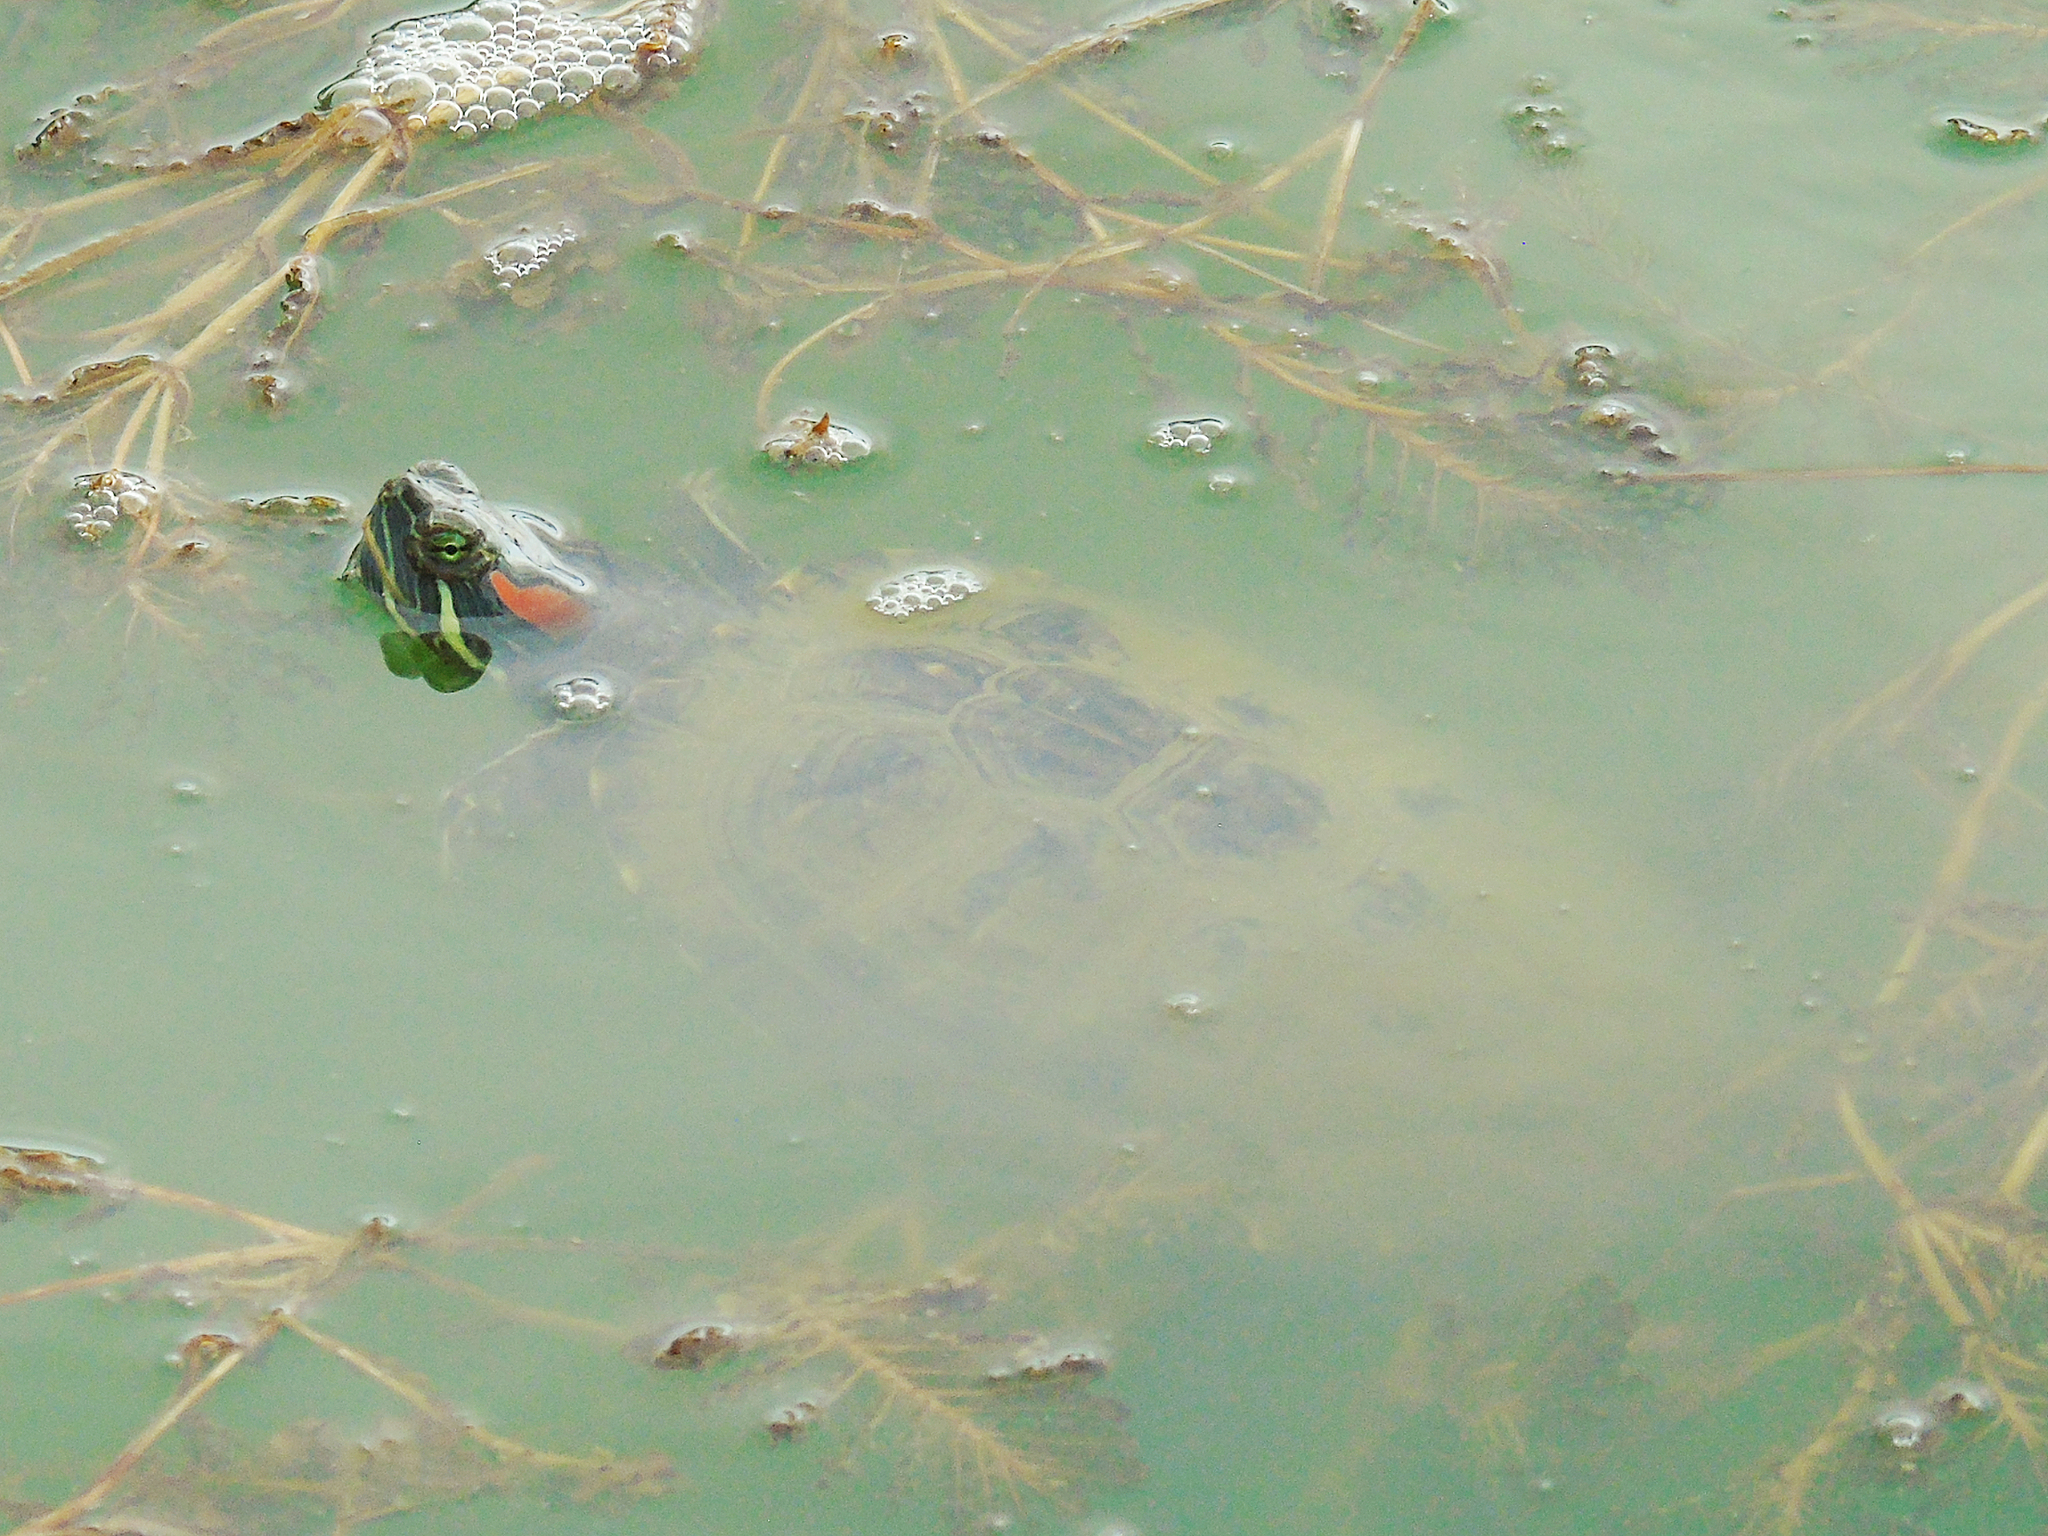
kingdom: Animalia
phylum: Chordata
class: Testudines
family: Emydidae
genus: Trachemys
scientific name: Trachemys scripta
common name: Slider
